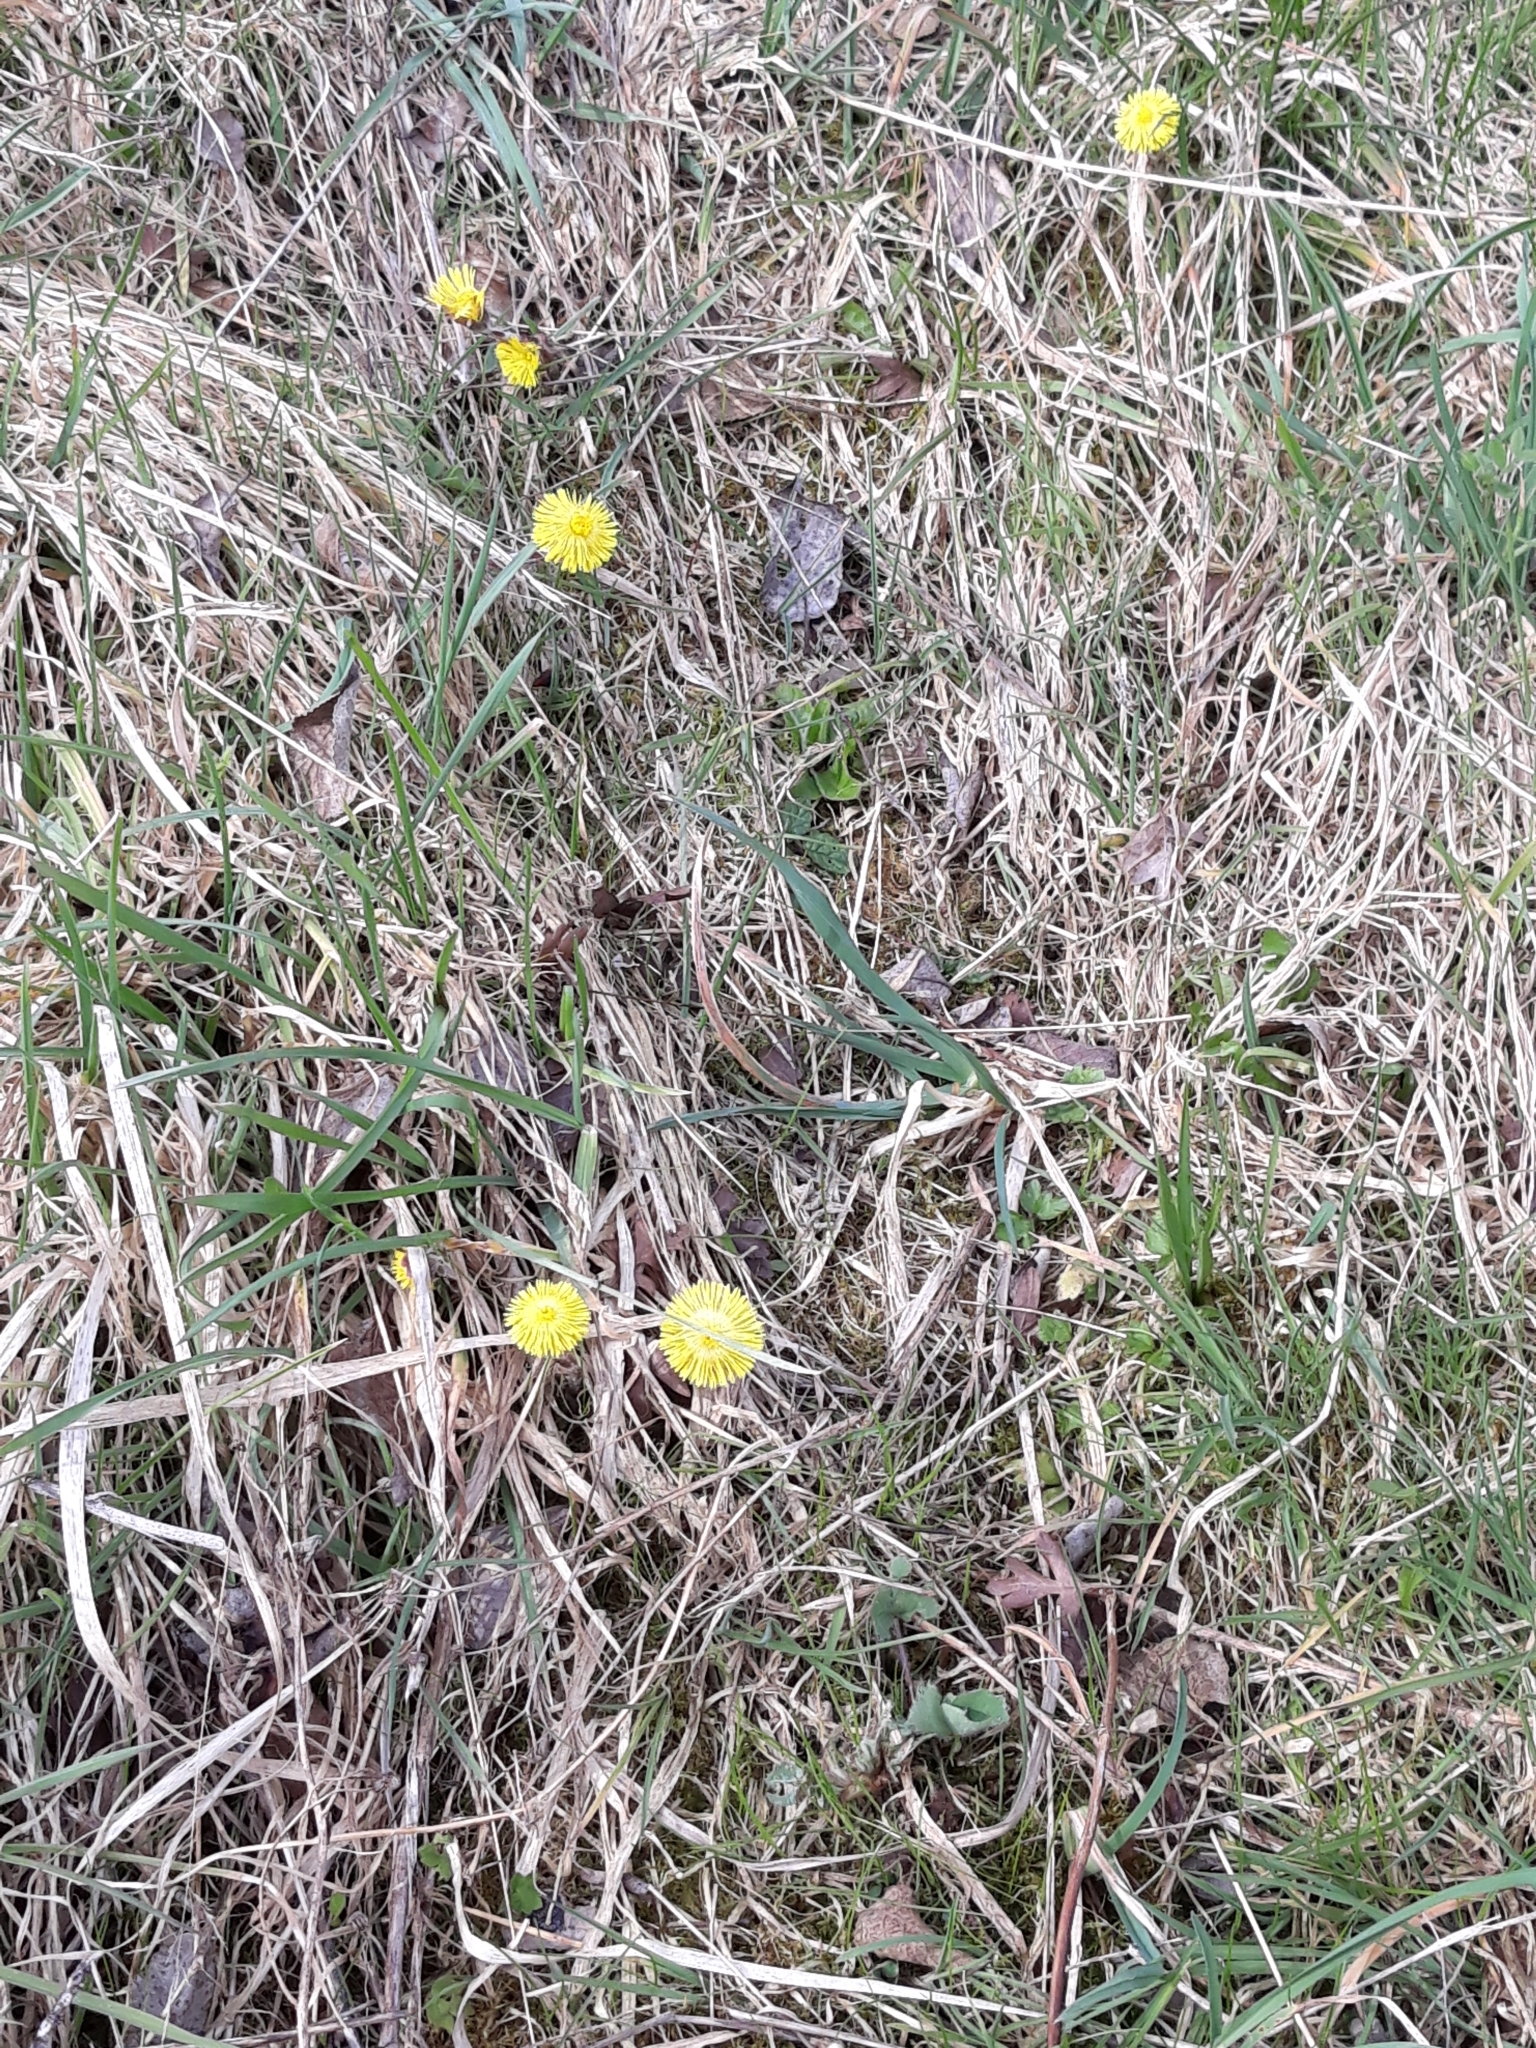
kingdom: Plantae
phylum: Tracheophyta
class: Magnoliopsida
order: Asterales
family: Asteraceae
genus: Tussilago
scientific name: Tussilago farfara
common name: Coltsfoot
